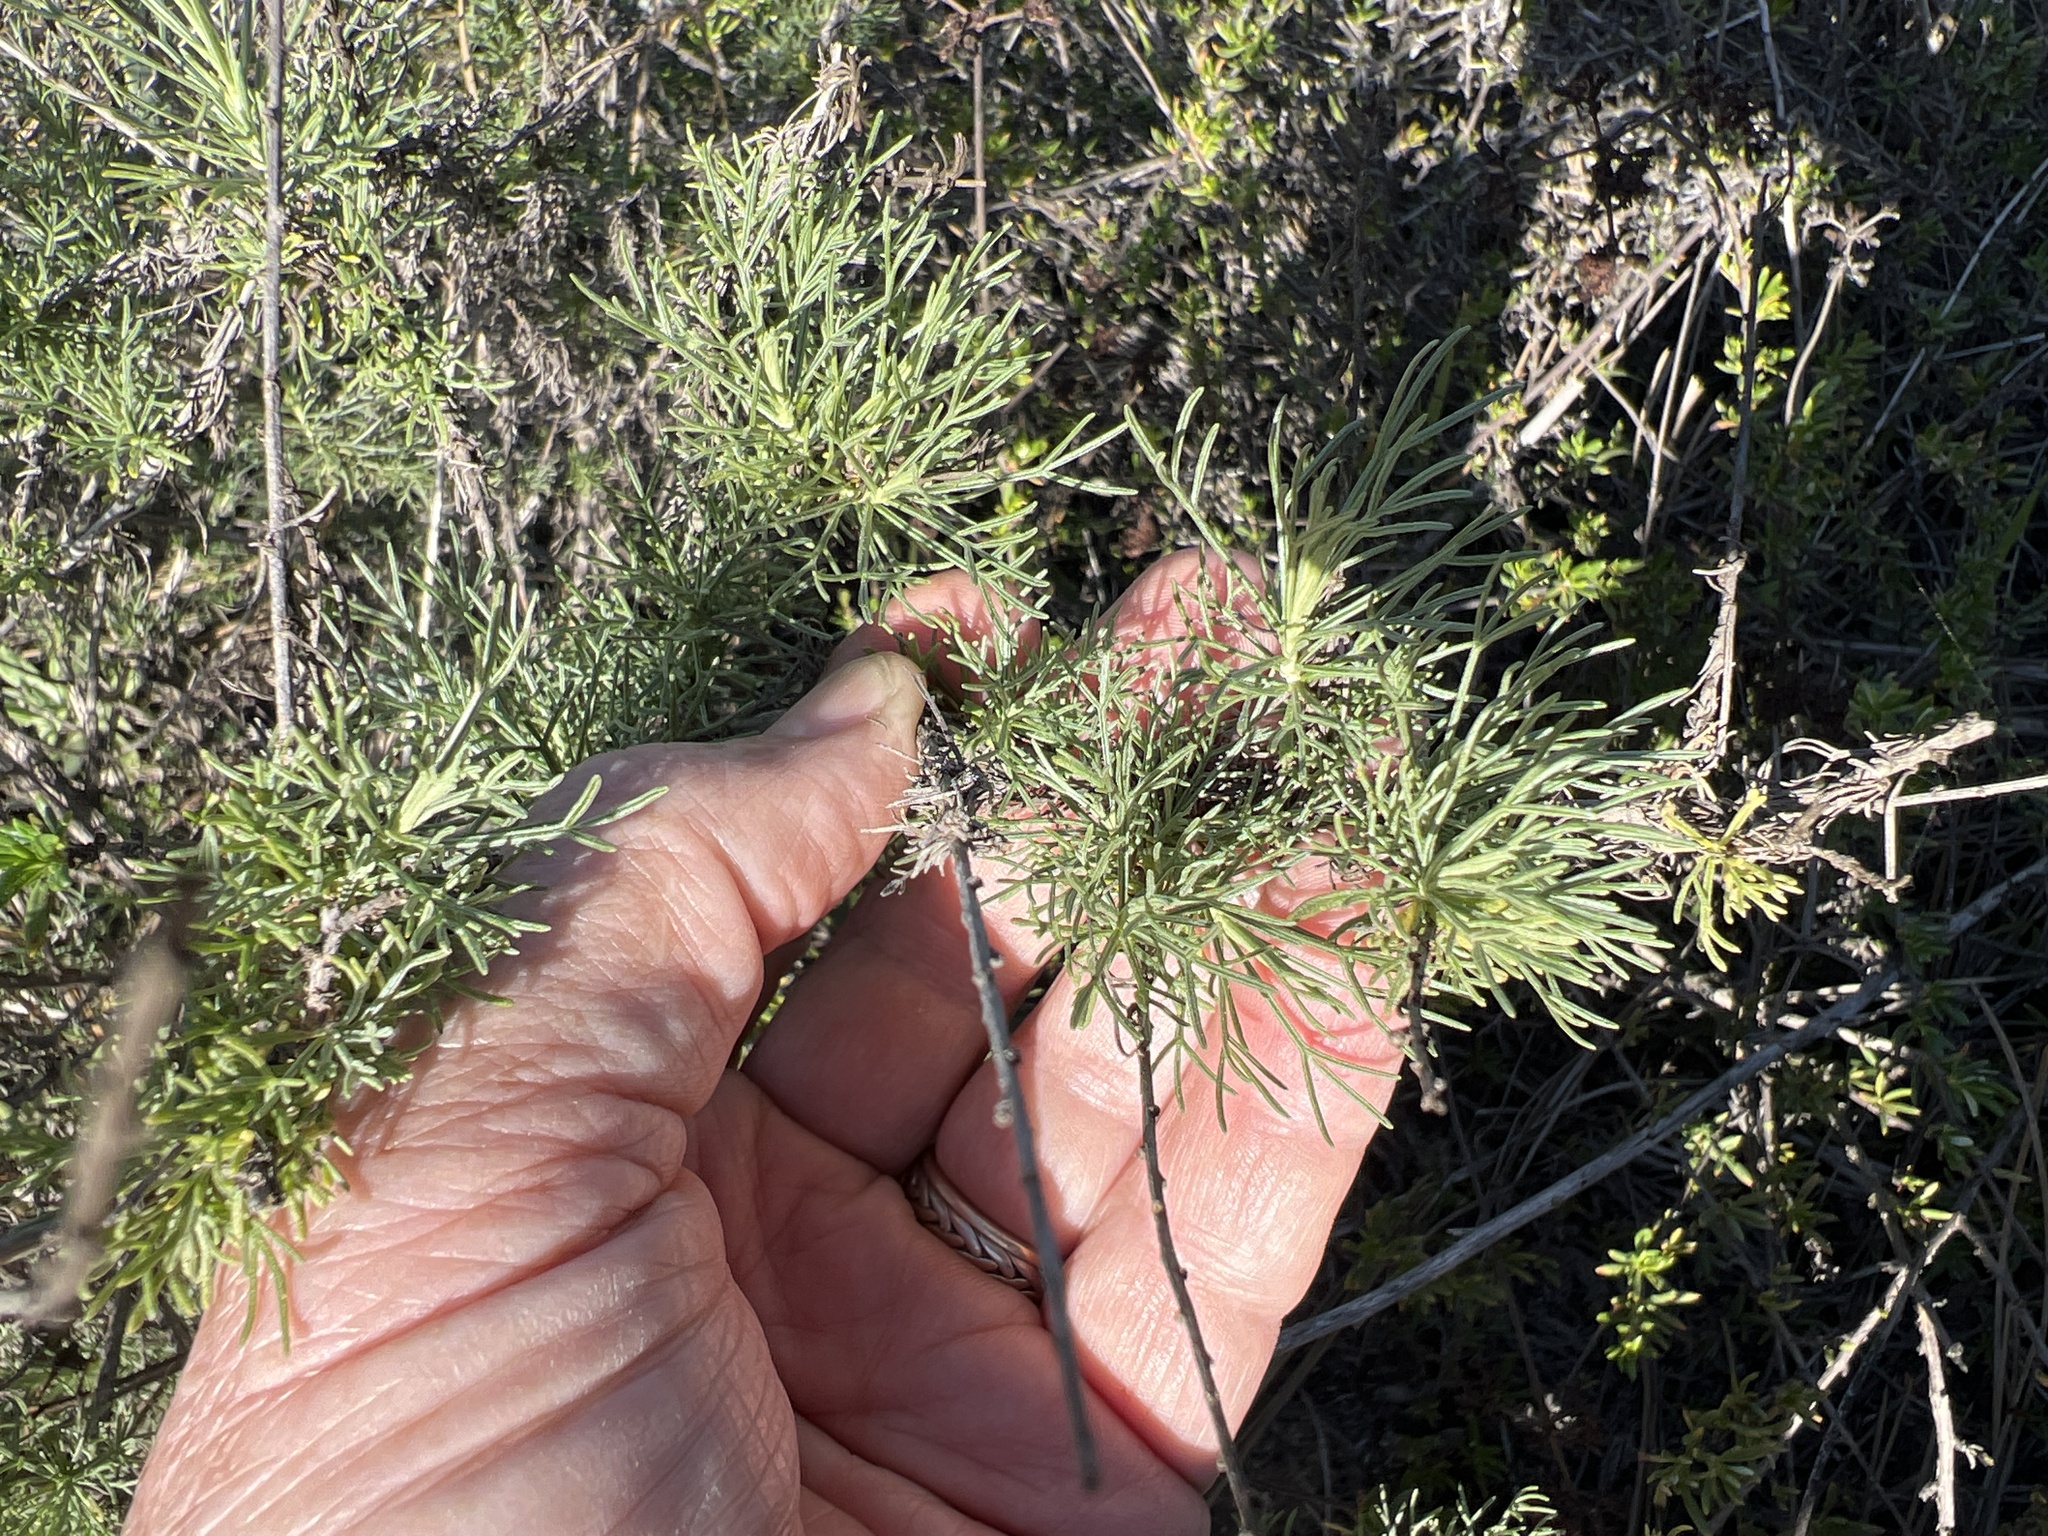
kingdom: Plantae
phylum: Tracheophyta
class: Magnoliopsida
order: Asterales
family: Asteraceae
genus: Artemisia
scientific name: Artemisia californica
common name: California sagebrush
